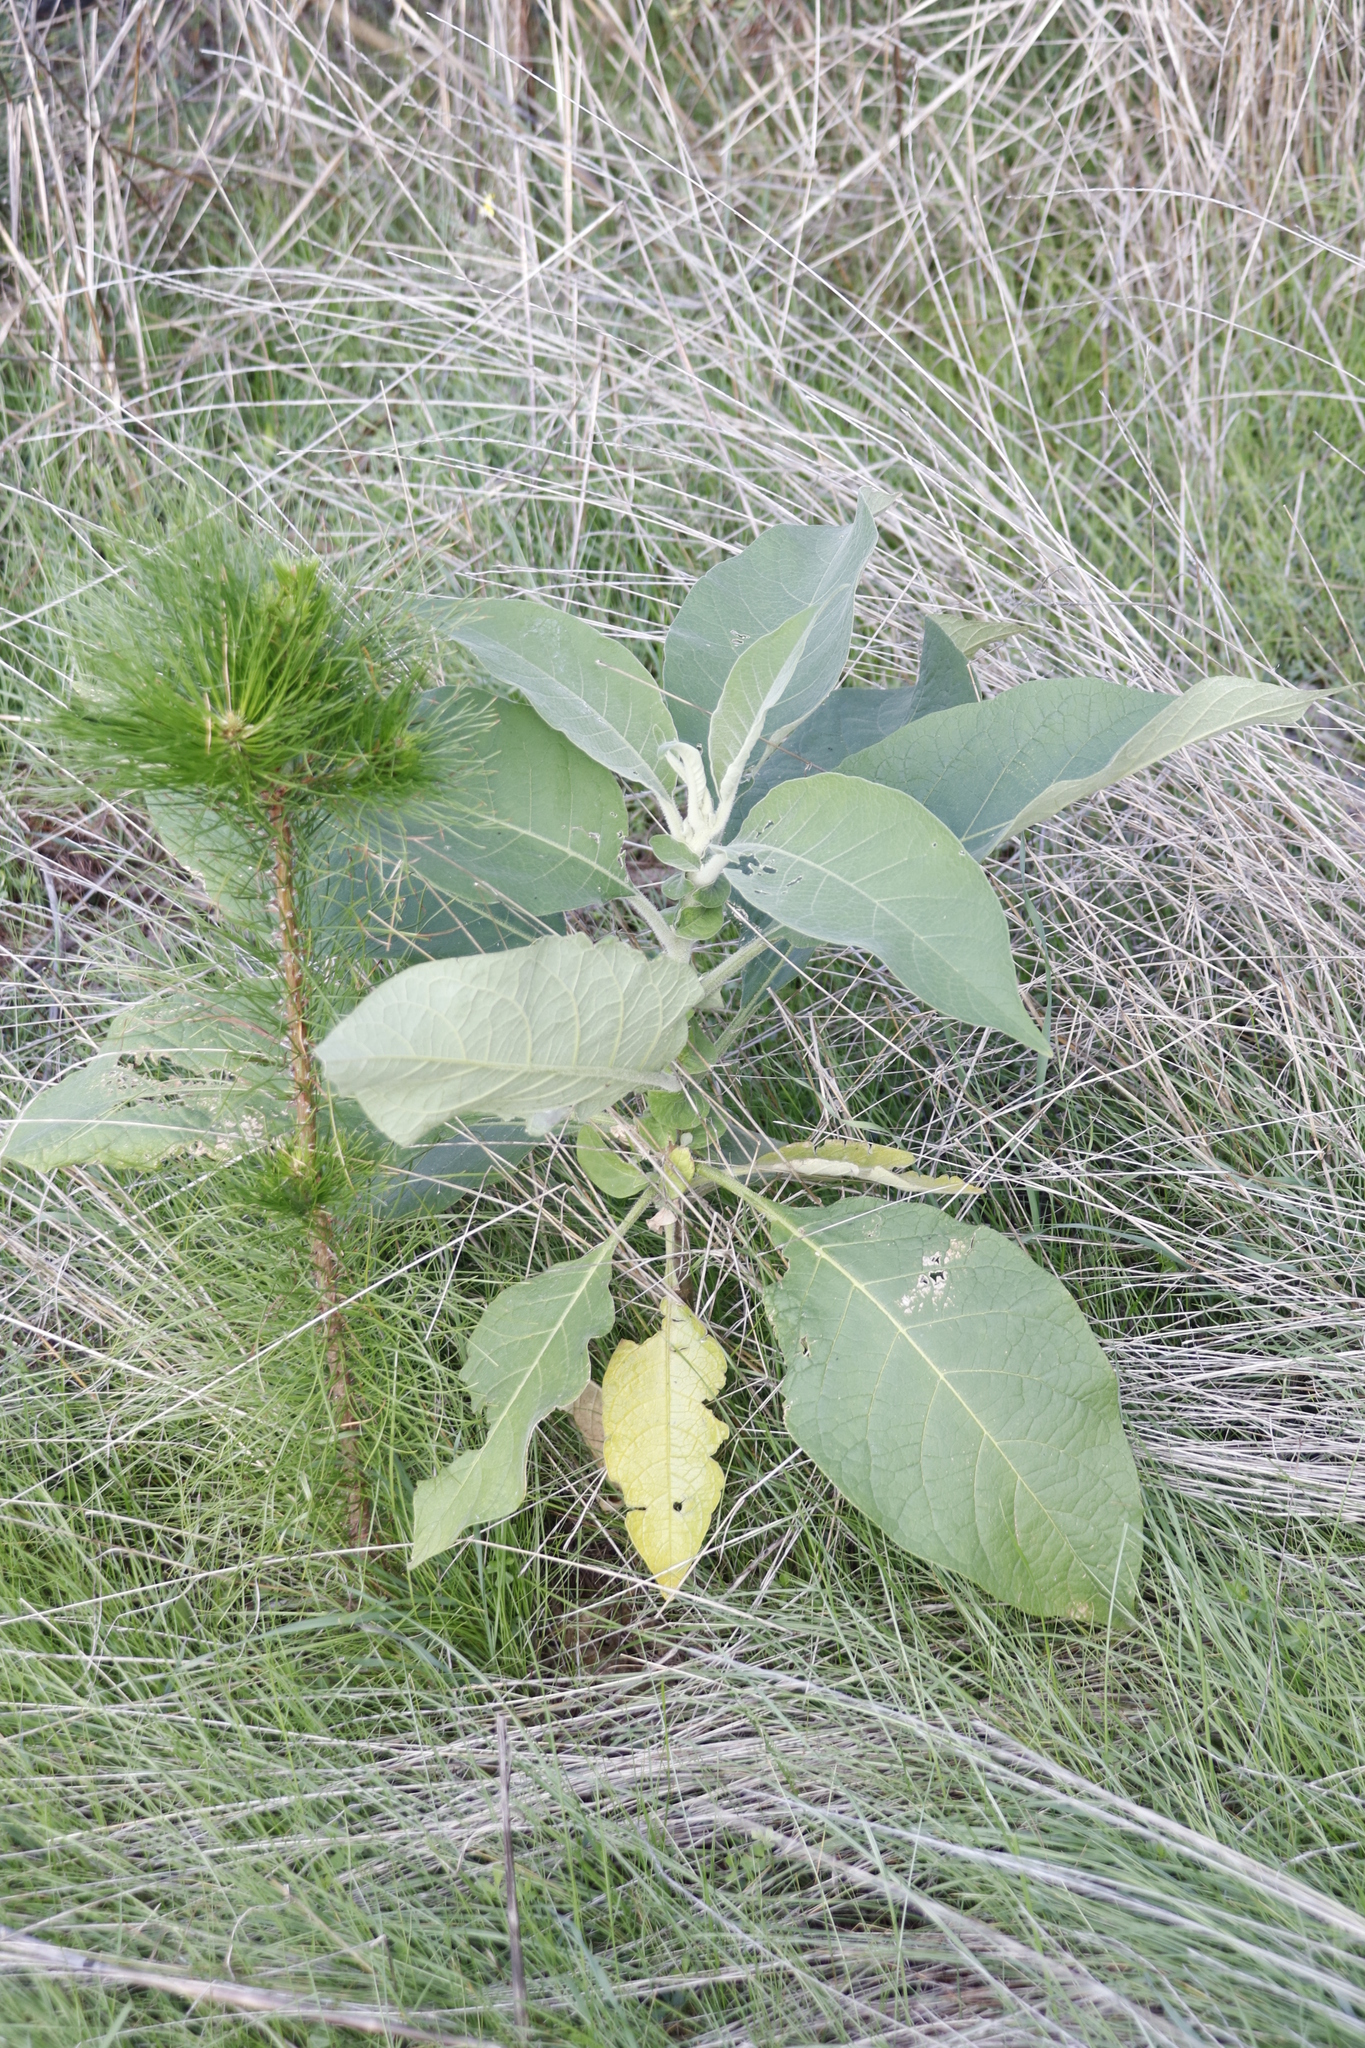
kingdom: Plantae
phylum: Tracheophyta
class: Magnoliopsida
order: Solanales
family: Solanaceae
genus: Solanum
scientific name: Solanum mauritianum
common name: Earleaf nightshade
